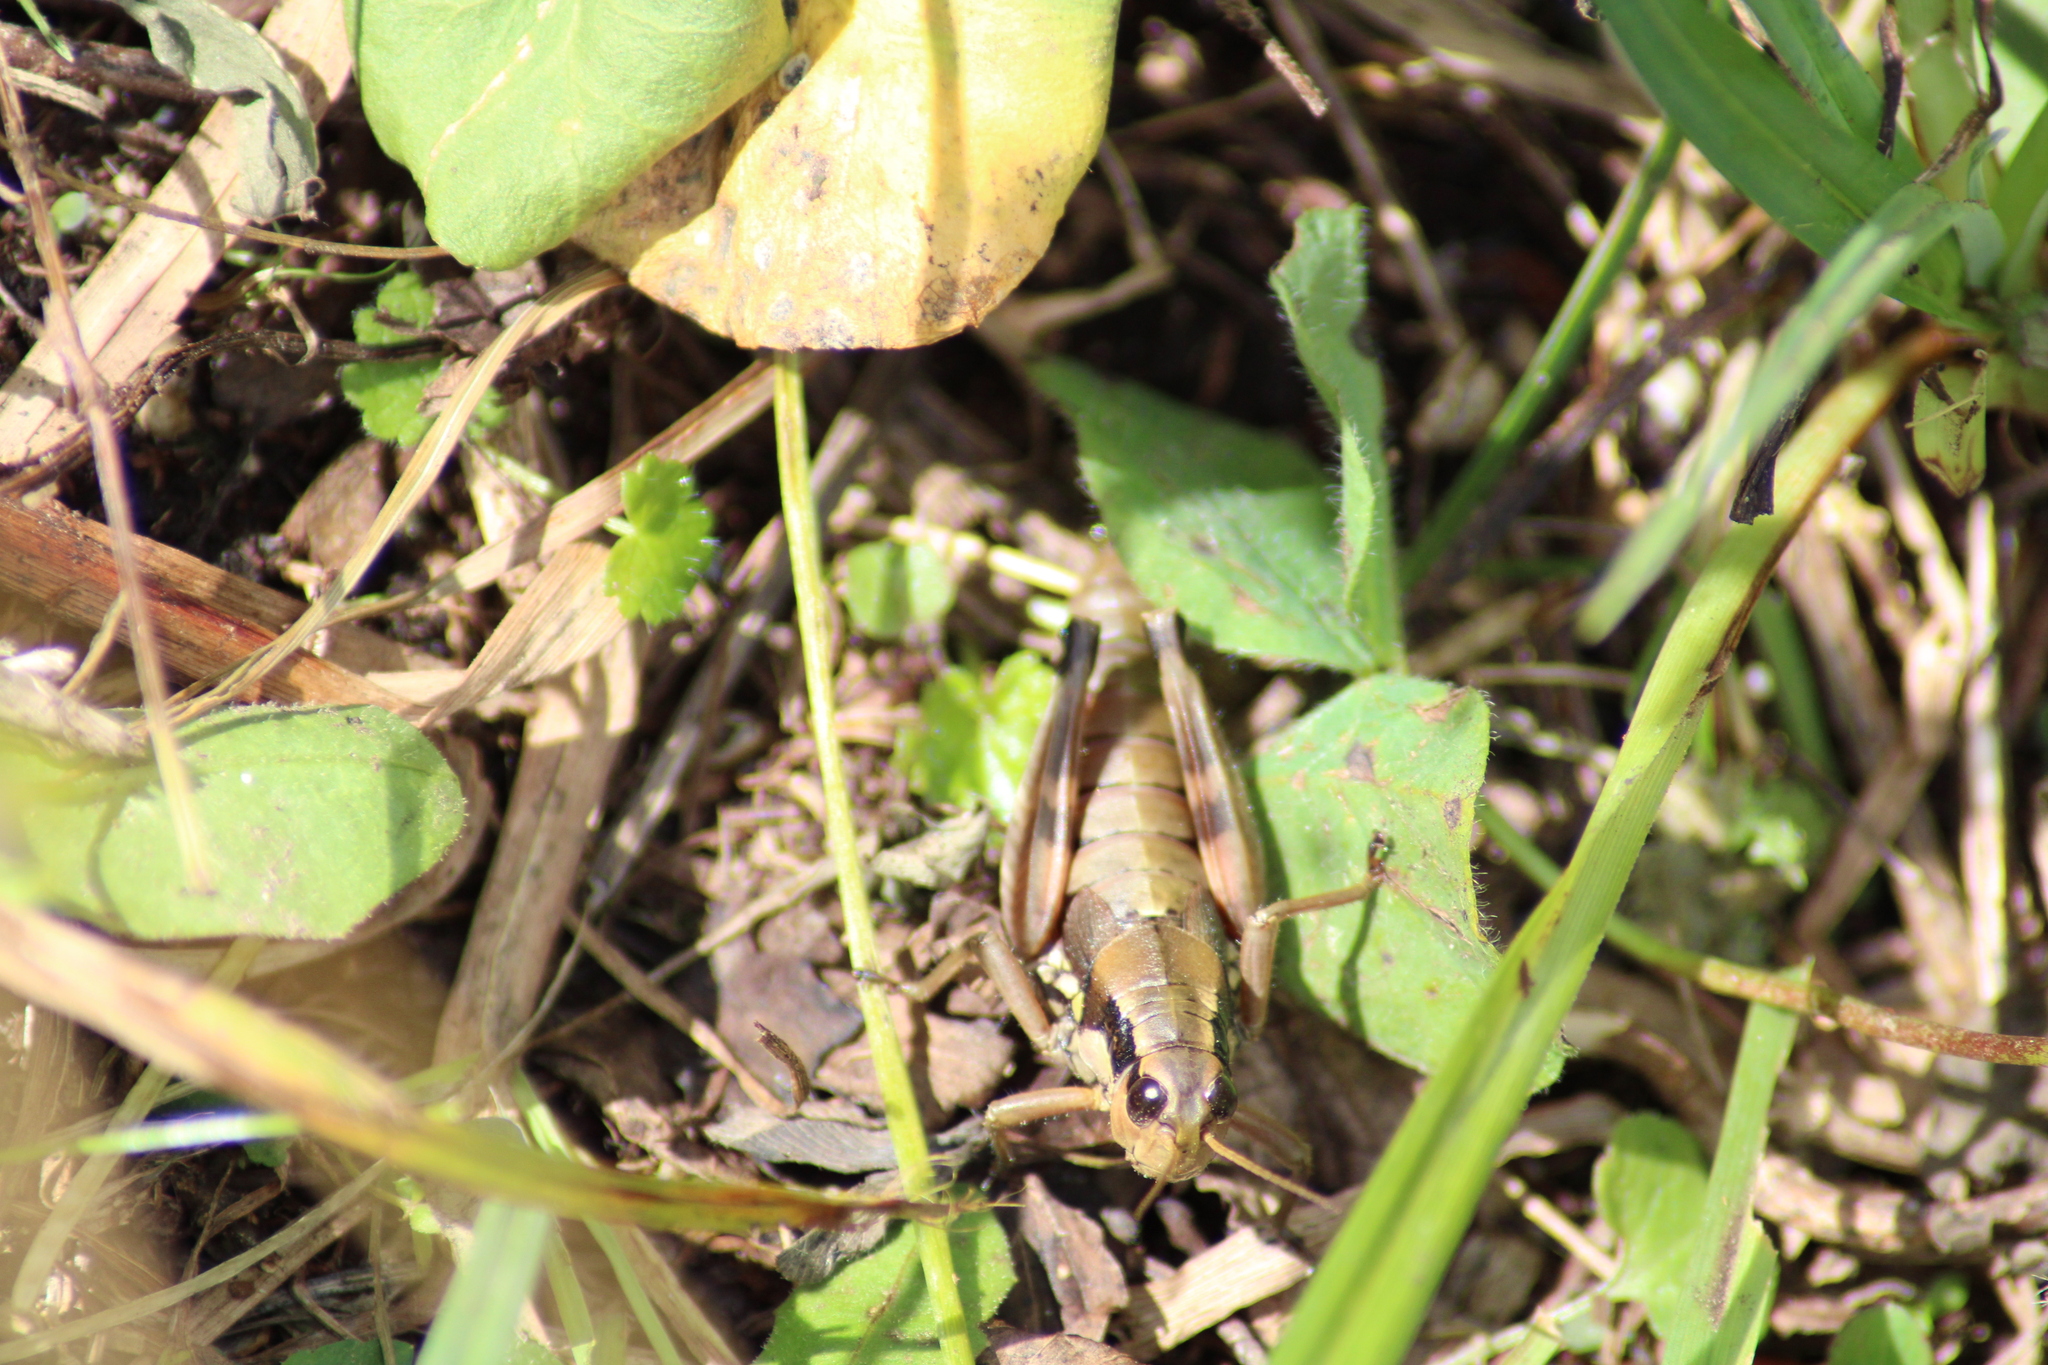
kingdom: Animalia
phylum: Arthropoda
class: Insecta
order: Orthoptera
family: Acrididae
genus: Podisma
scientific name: Podisma pedestris
